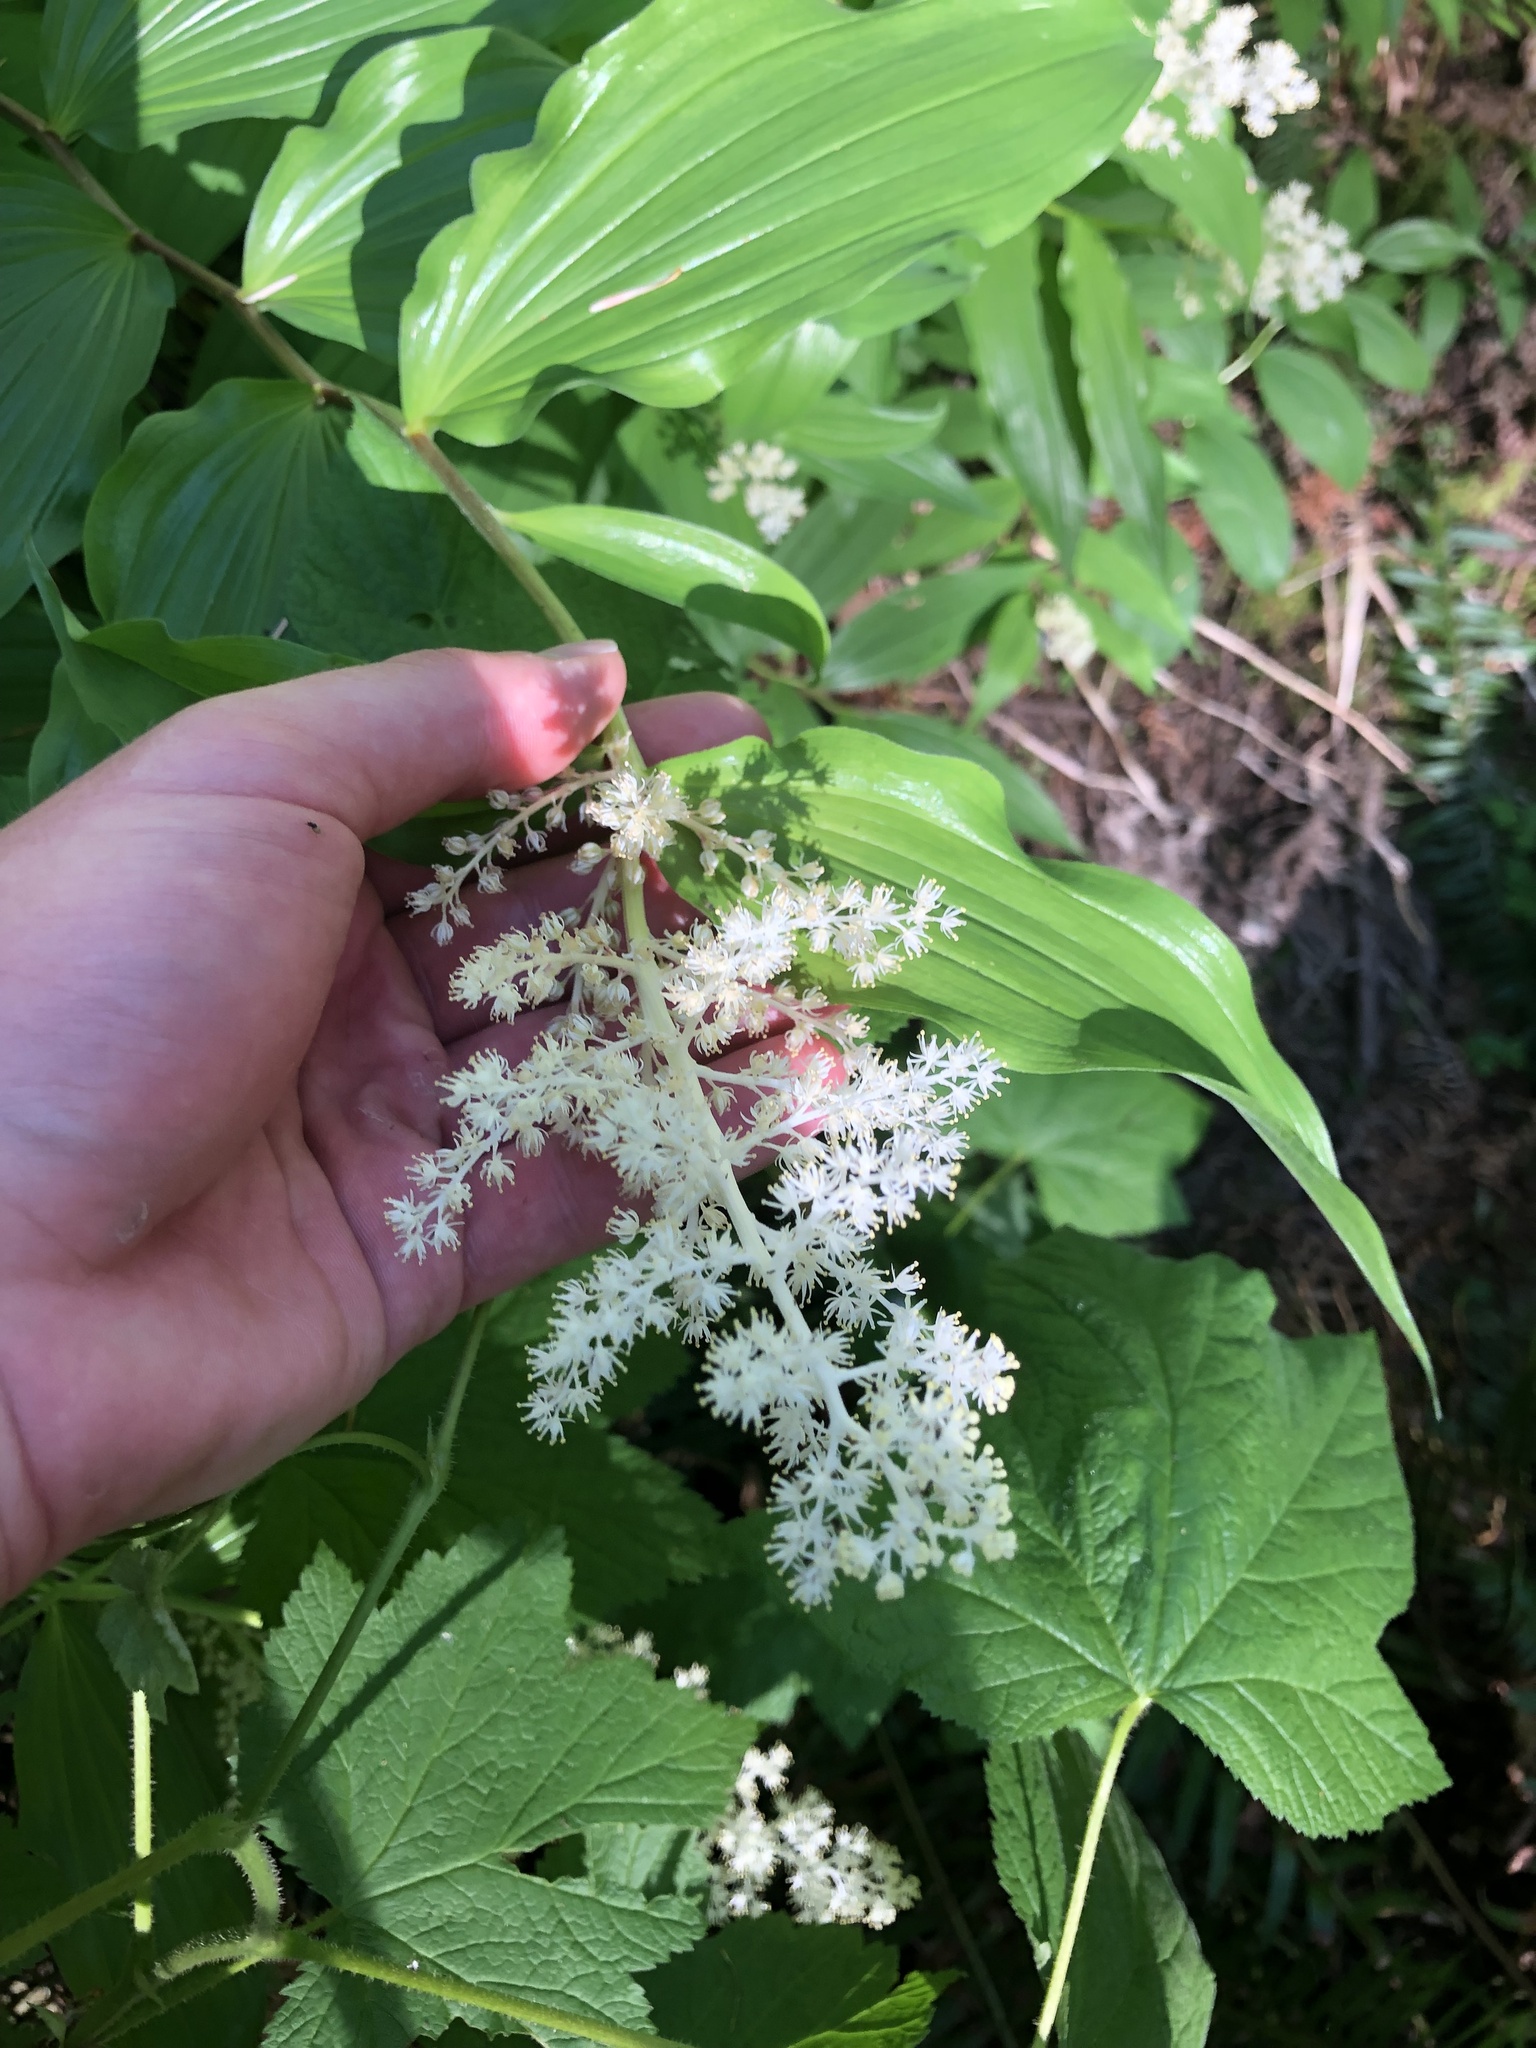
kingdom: Plantae
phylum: Tracheophyta
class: Liliopsida
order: Asparagales
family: Asparagaceae
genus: Maianthemum
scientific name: Maianthemum racemosum
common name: False spikenard
